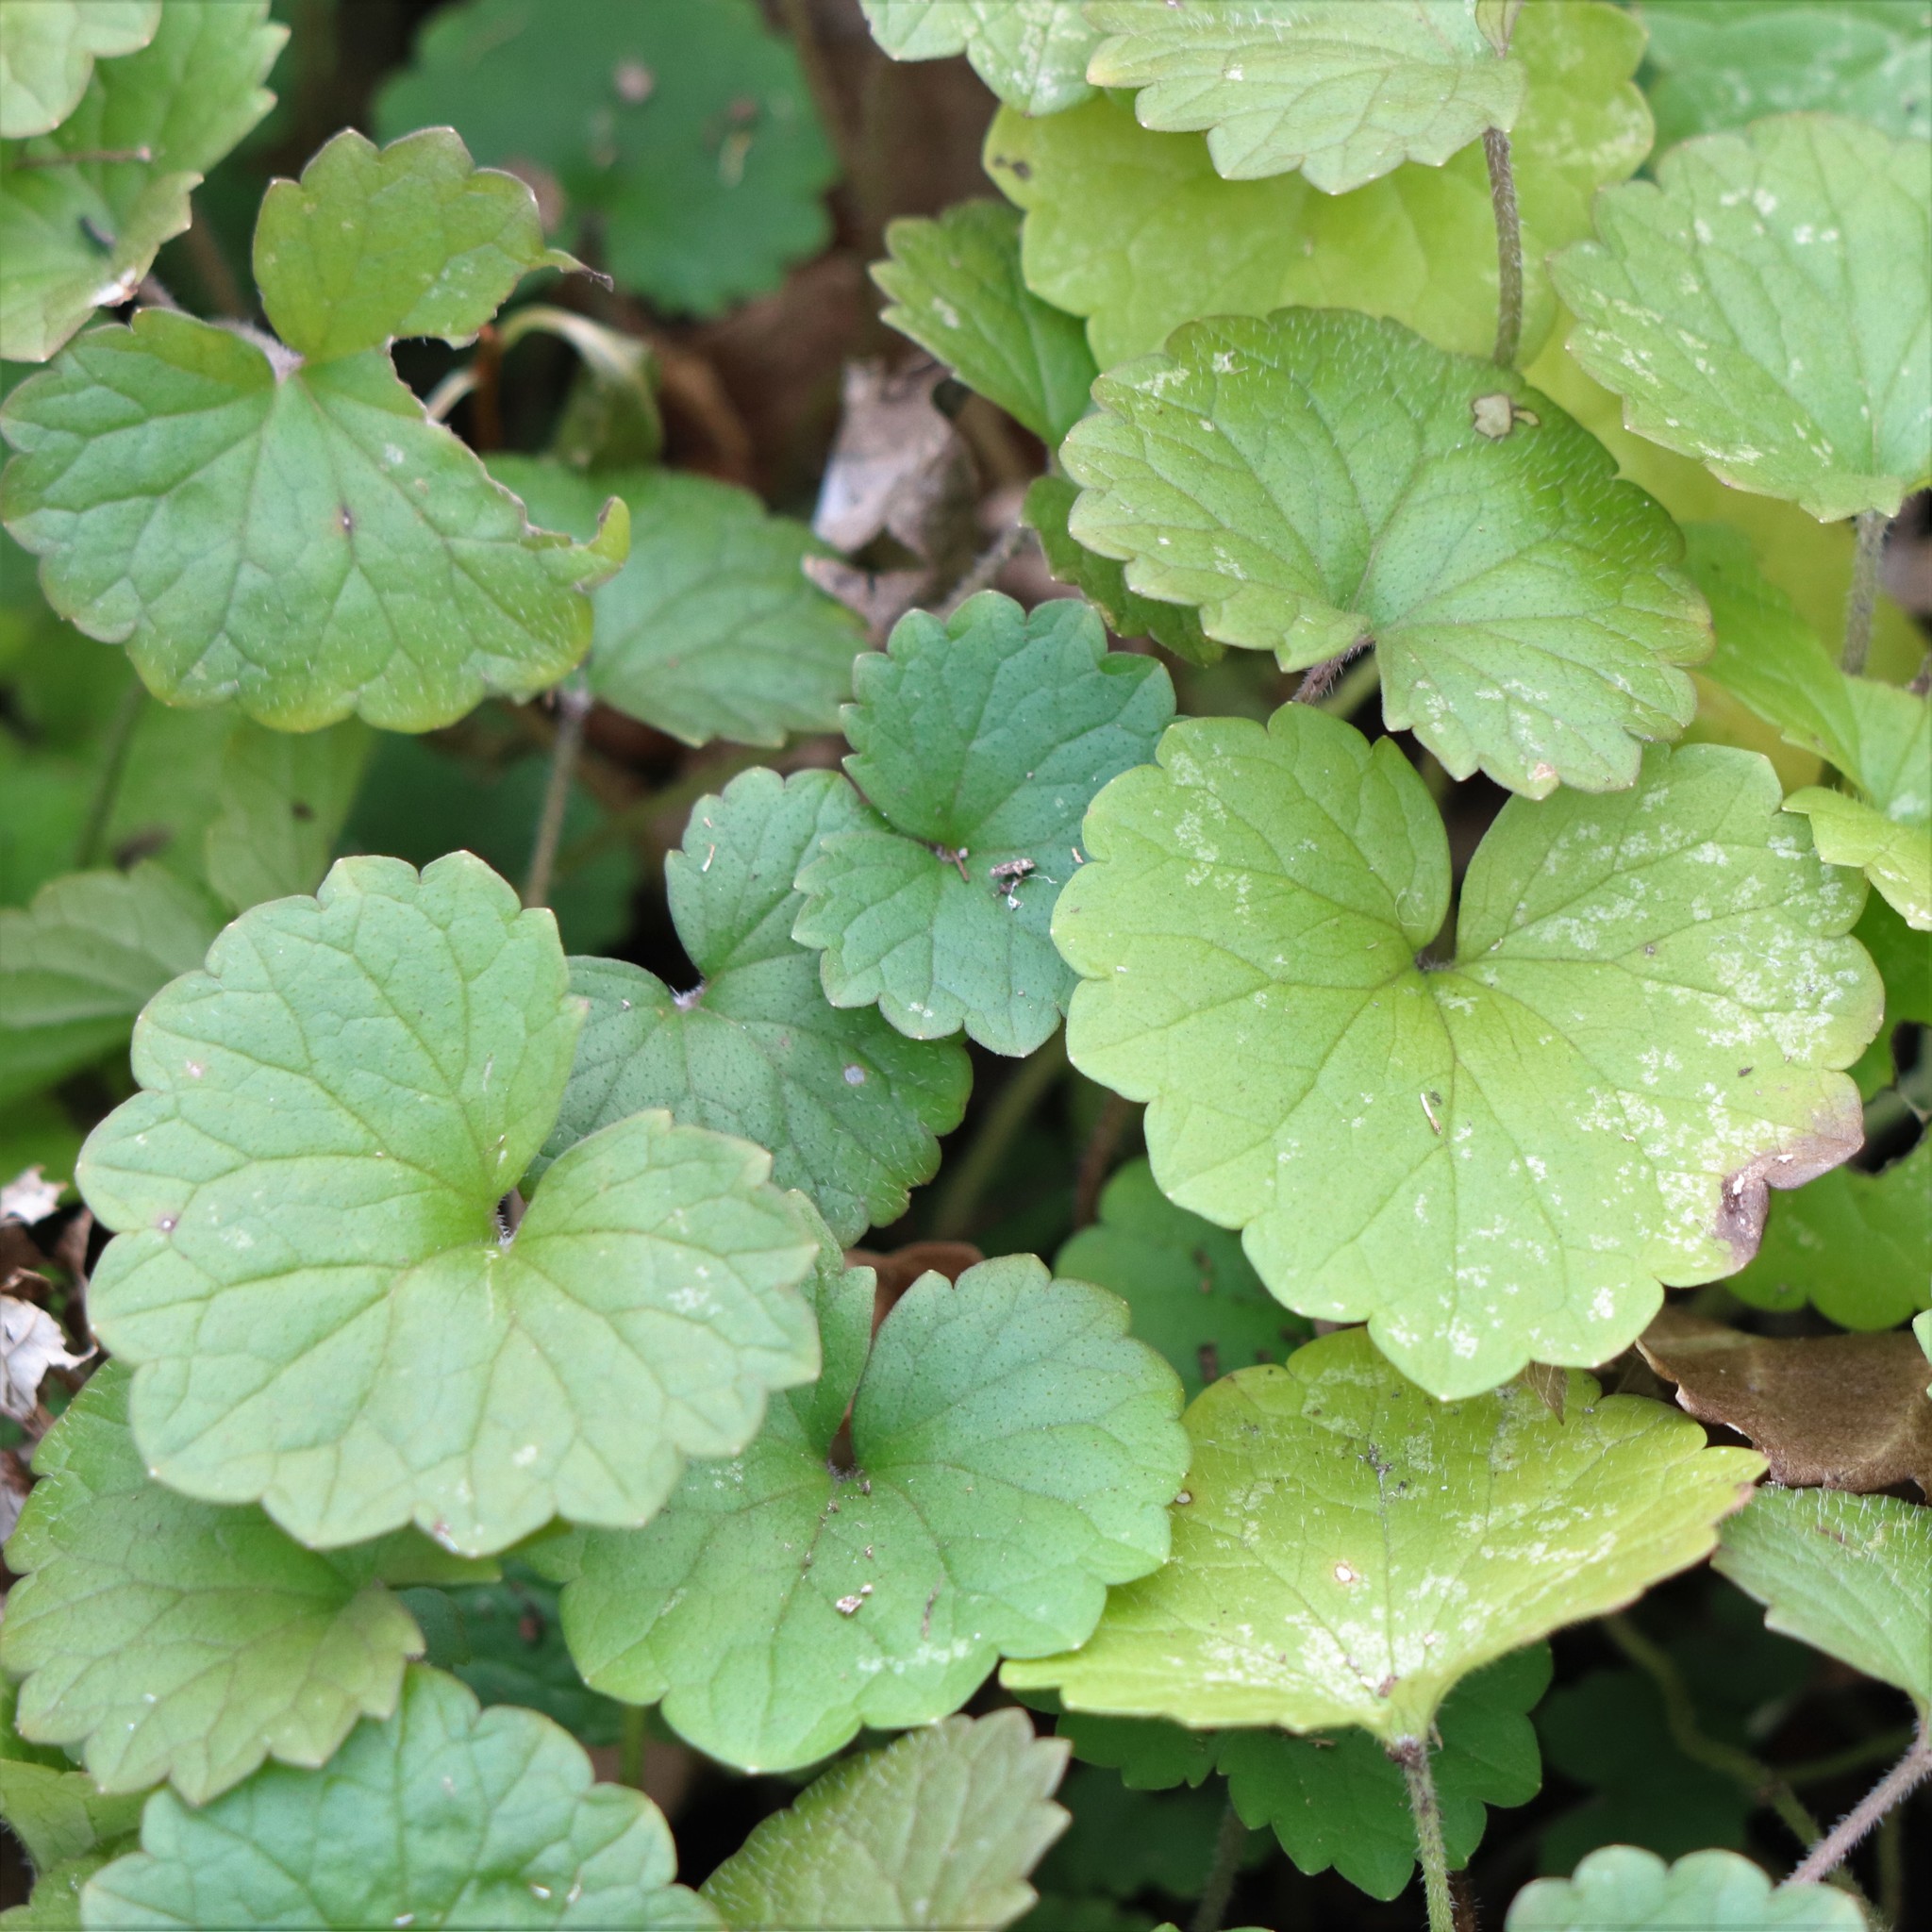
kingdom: Plantae
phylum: Tracheophyta
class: Magnoliopsida
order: Lamiales
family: Lamiaceae
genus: Glechoma
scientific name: Glechoma hederacea
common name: Ground ivy
